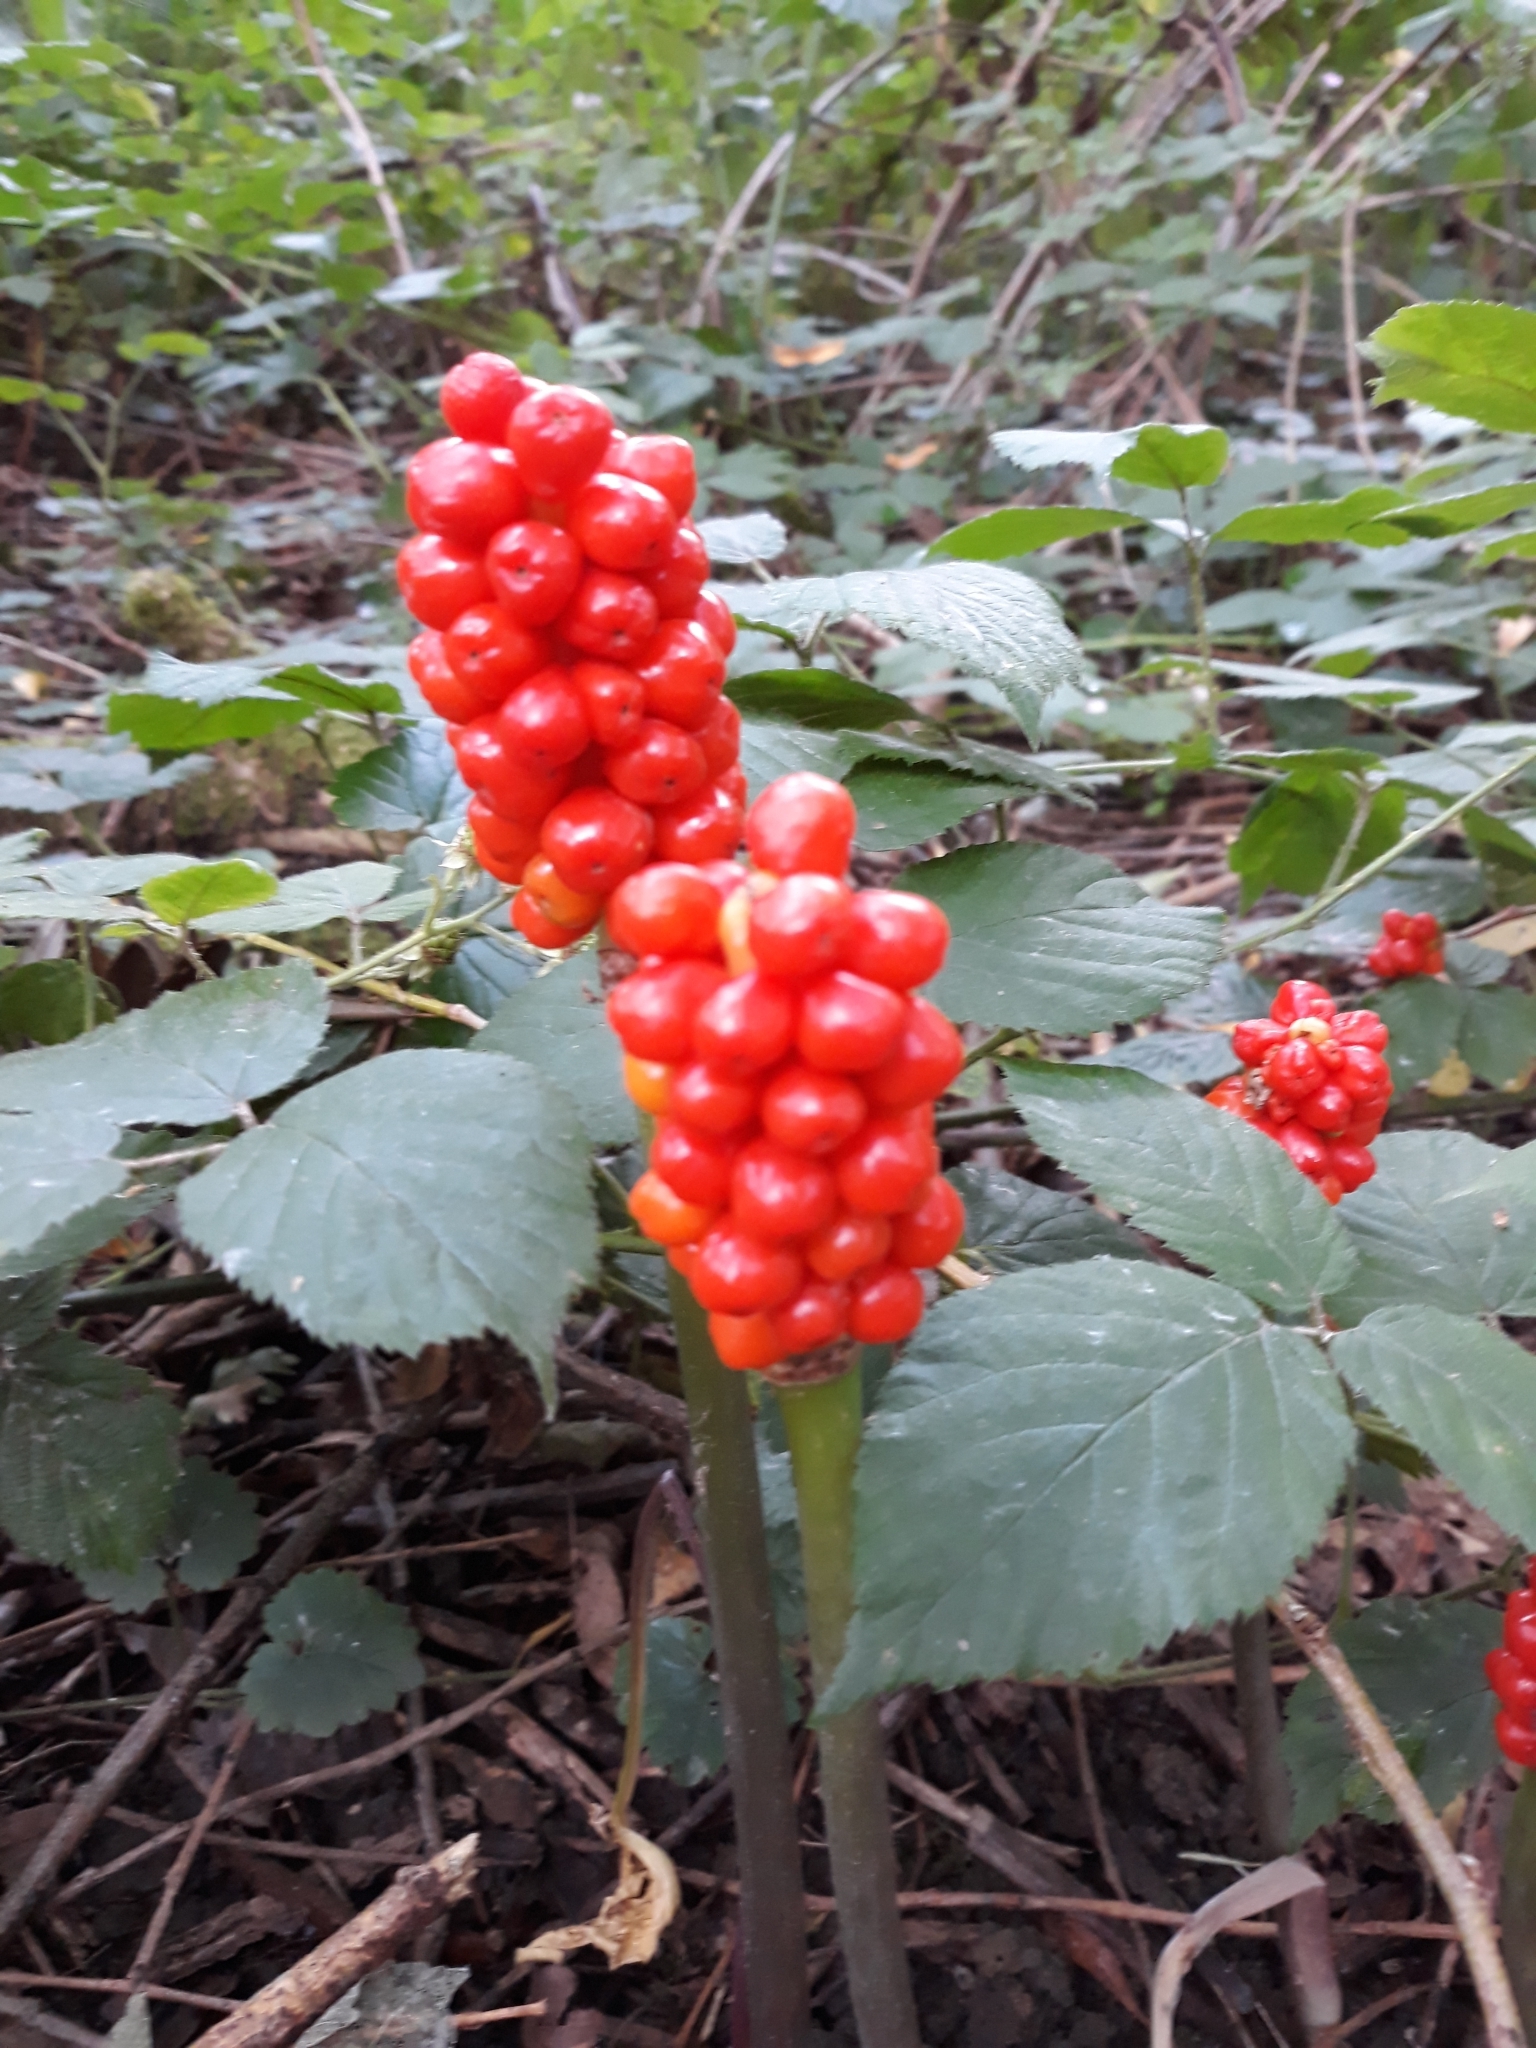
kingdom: Plantae
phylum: Tracheophyta
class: Liliopsida
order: Alismatales
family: Araceae
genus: Arum
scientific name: Arum maculatum
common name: Lords-and-ladies
